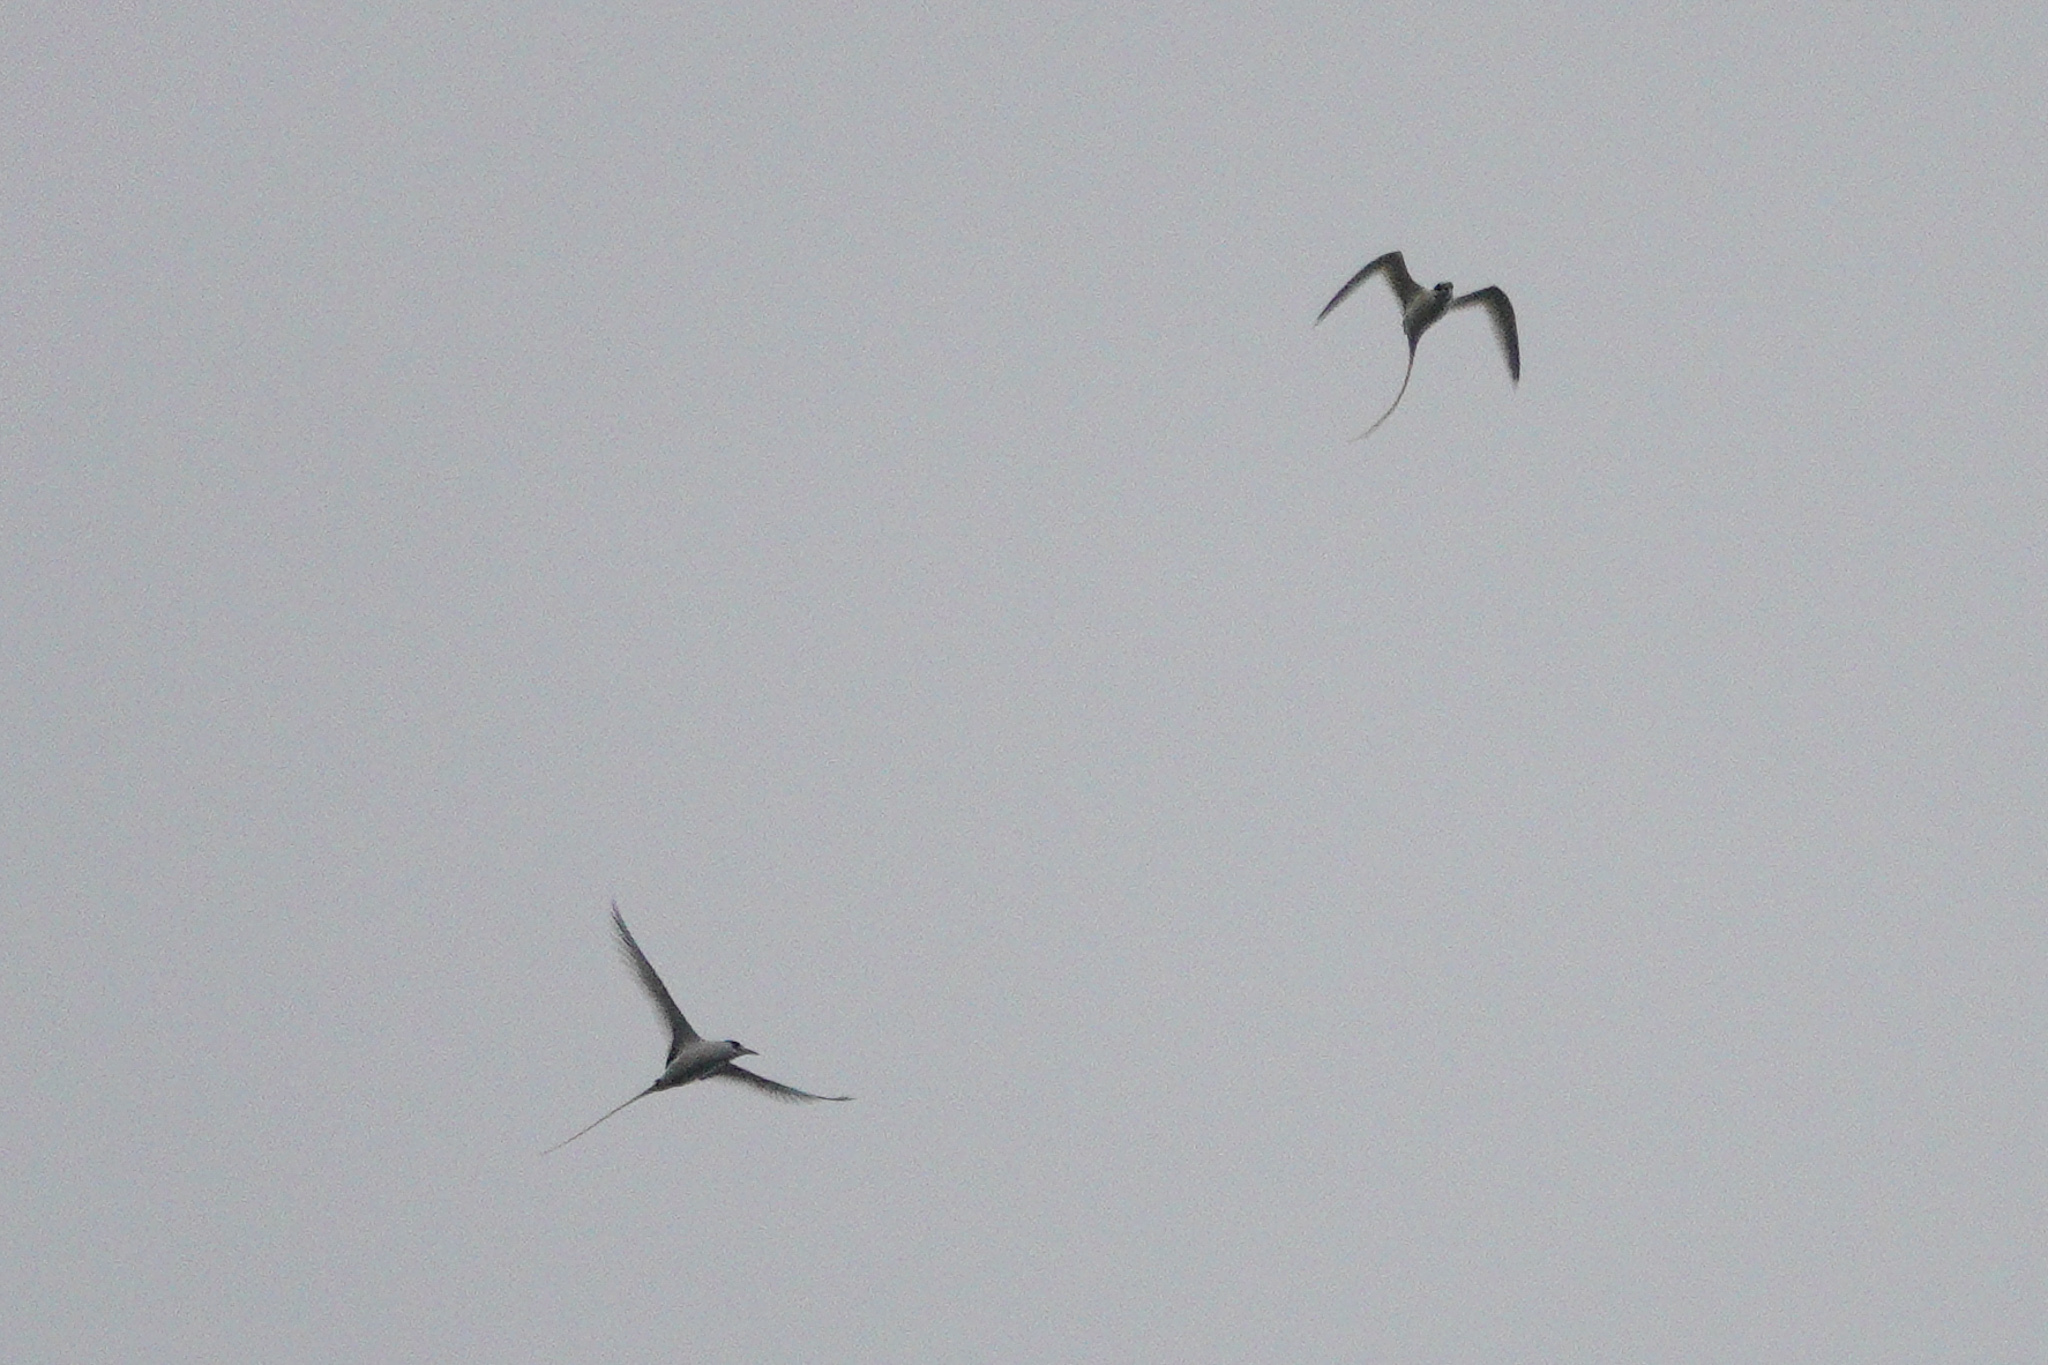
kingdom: Animalia
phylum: Chordata
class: Aves
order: Phaethontiformes
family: Phaethontidae
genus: Phaethon
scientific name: Phaethon lepturus
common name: White-tailed tropicbird
